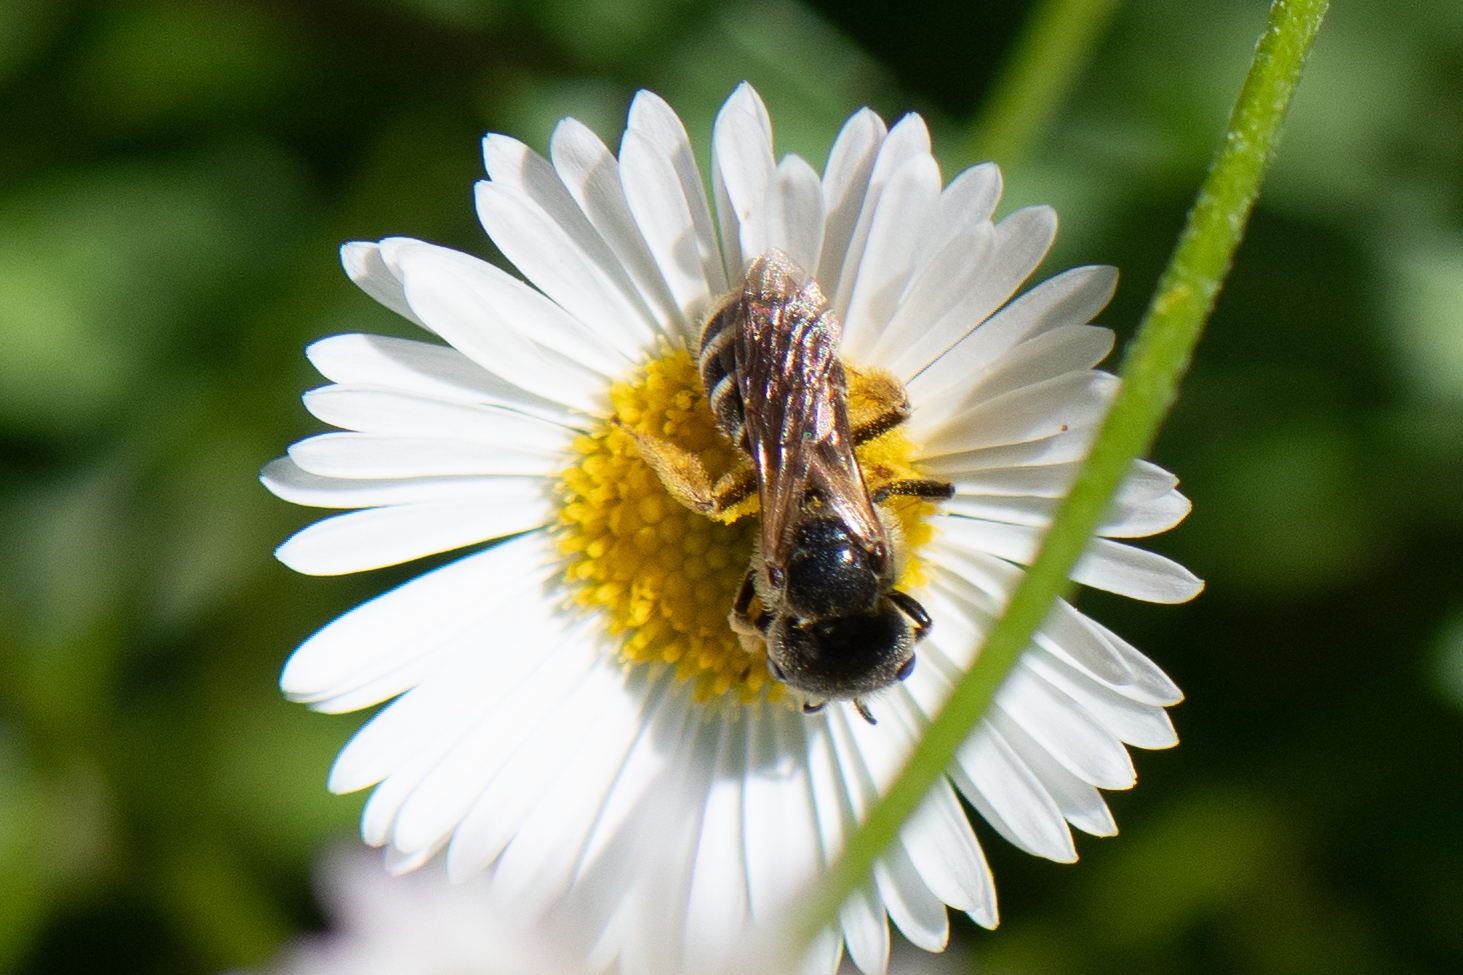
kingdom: Animalia
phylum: Arthropoda
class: Insecta
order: Hymenoptera
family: Halictidae
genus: Halictus
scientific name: Halictus ligatus
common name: Ligated furrow bee
